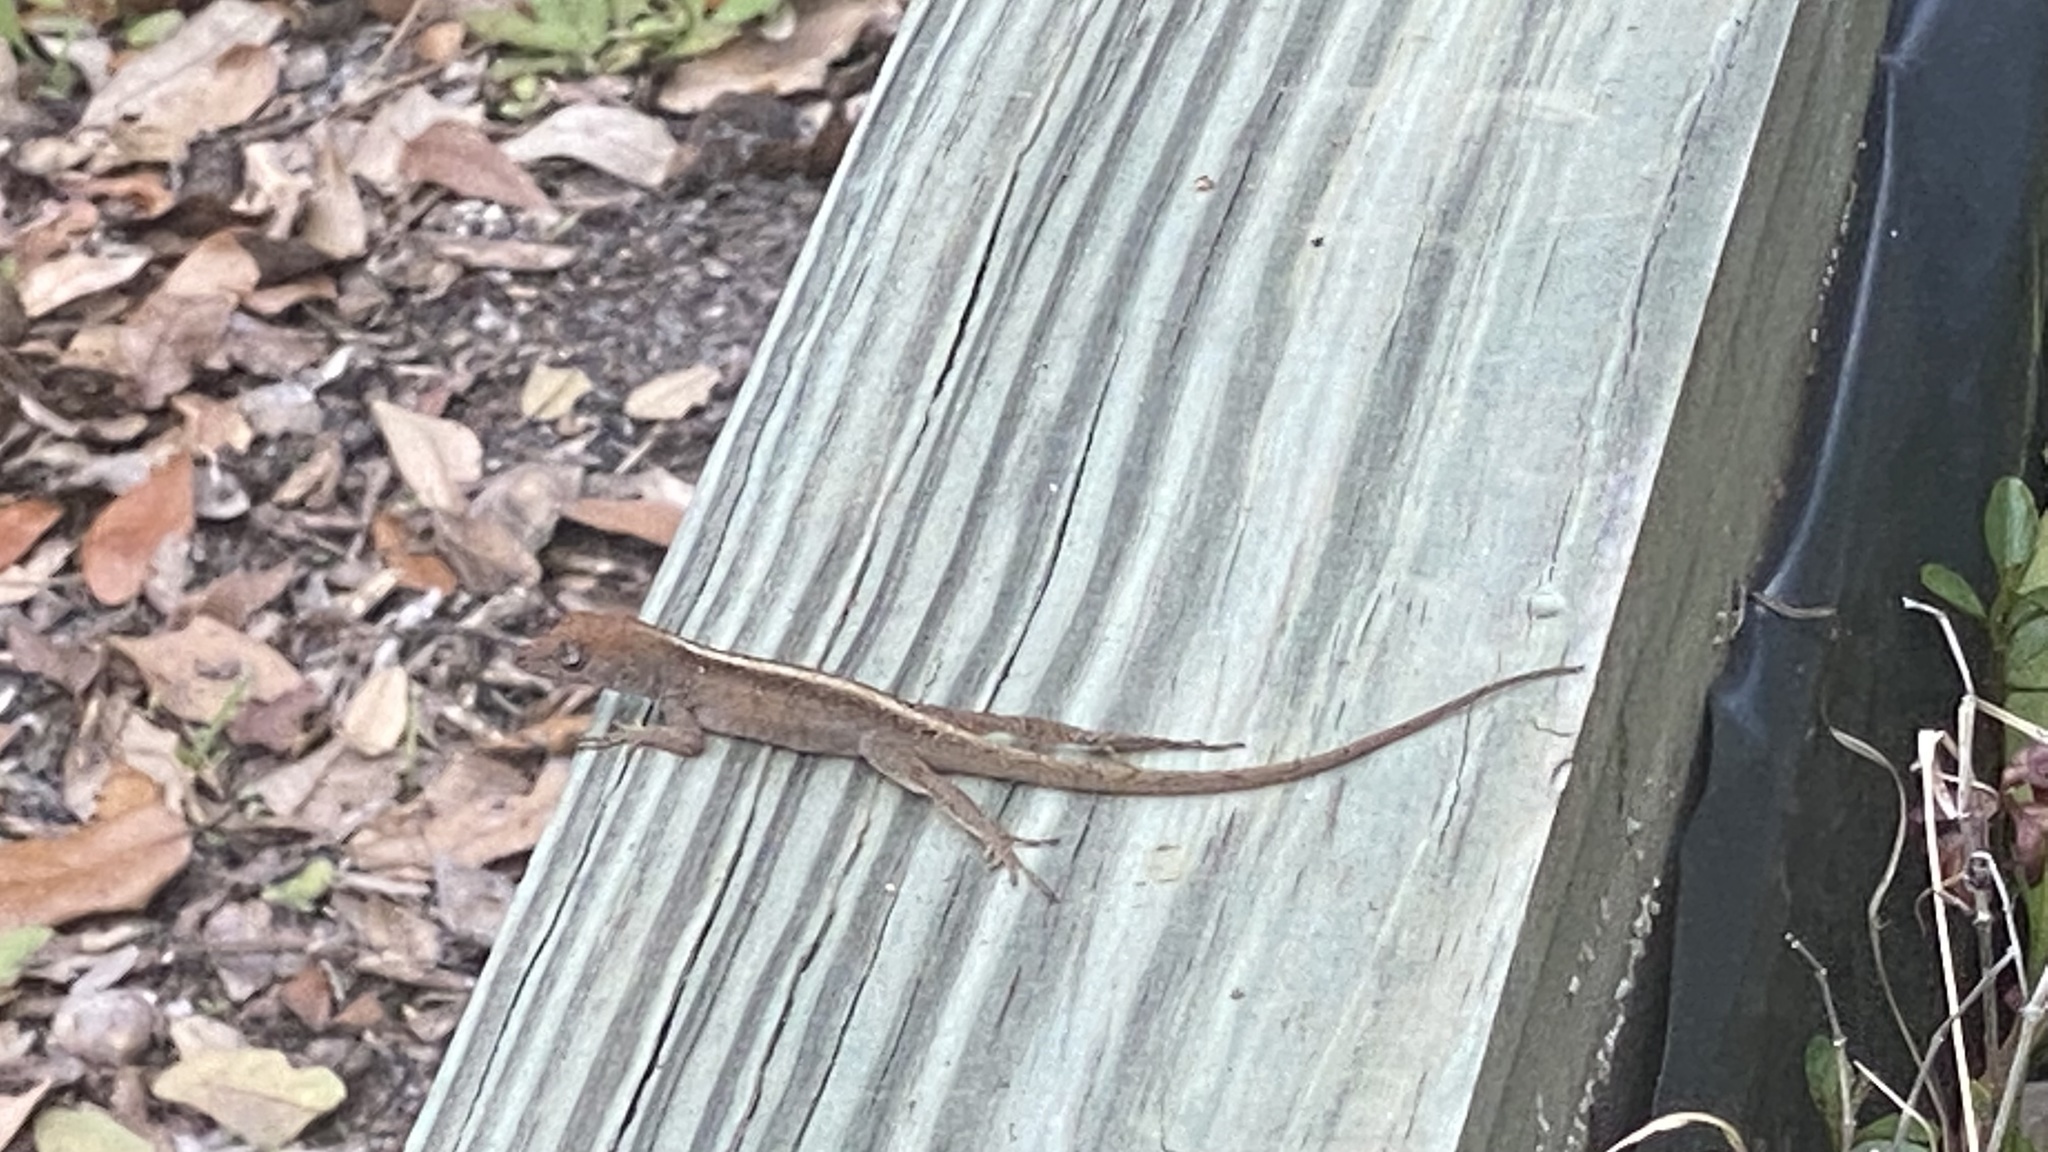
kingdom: Animalia
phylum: Chordata
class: Squamata
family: Dactyloidae
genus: Anolis
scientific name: Anolis sagrei
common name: Brown anole
